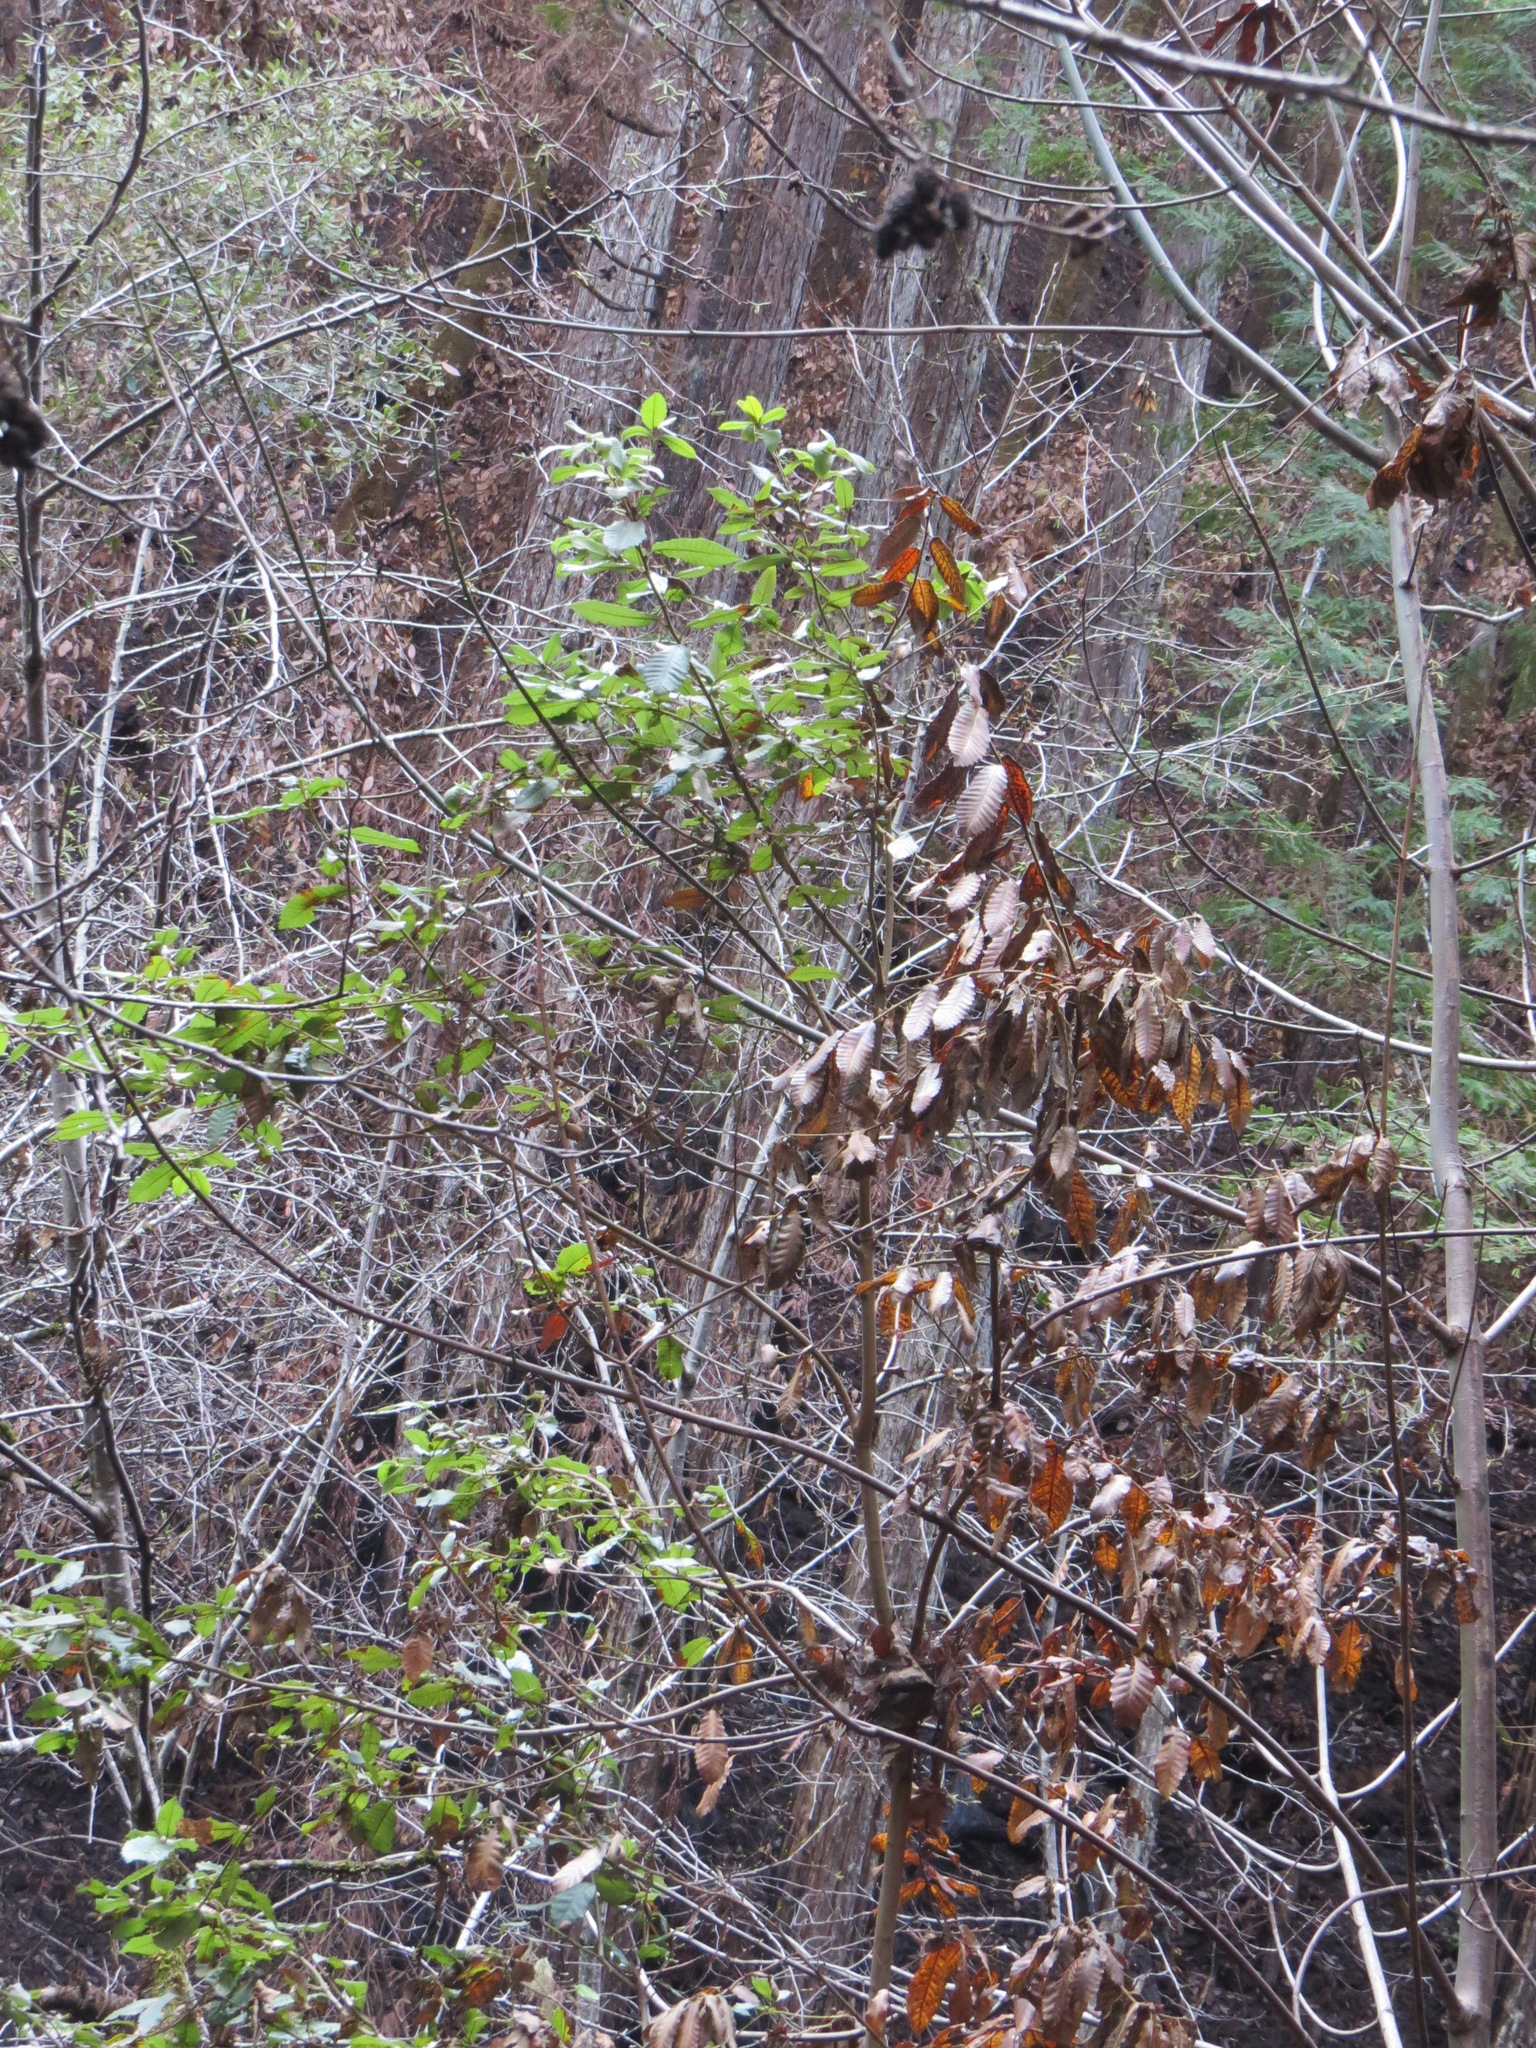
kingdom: Plantae
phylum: Tracheophyta
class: Magnoliopsida
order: Fagales
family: Fagaceae
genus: Notholithocarpus
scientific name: Notholithocarpus densiflorus
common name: Tan bark oak
